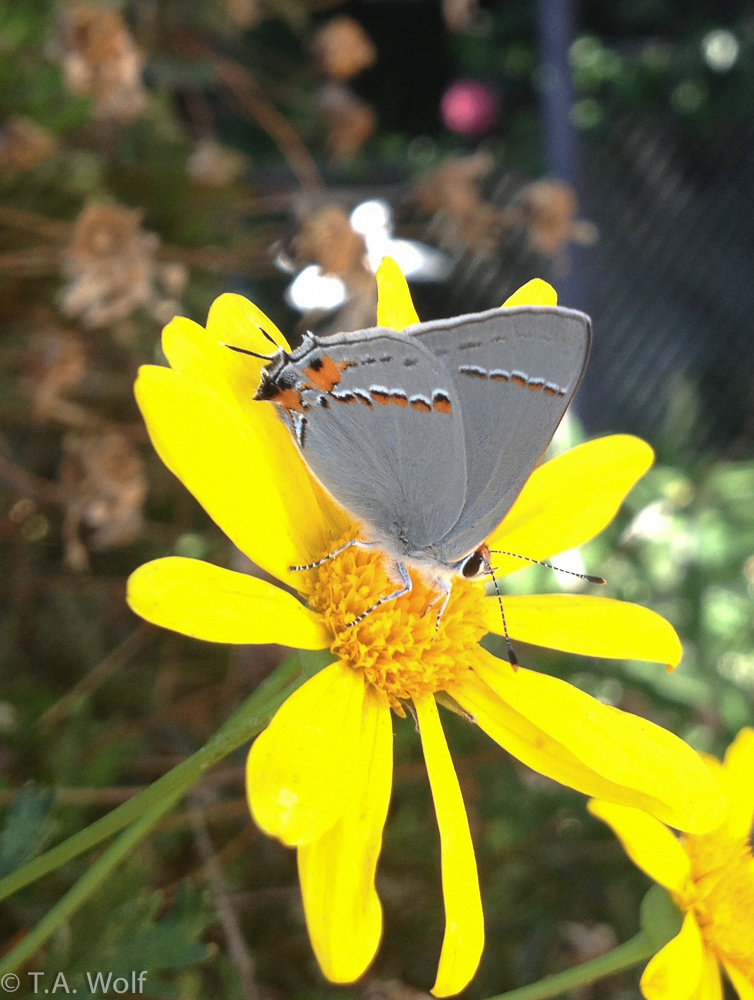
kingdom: Animalia
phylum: Arthropoda
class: Insecta
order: Lepidoptera
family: Lycaenidae
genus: Strymon
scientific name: Strymon melinus
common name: Gray hairstreak
